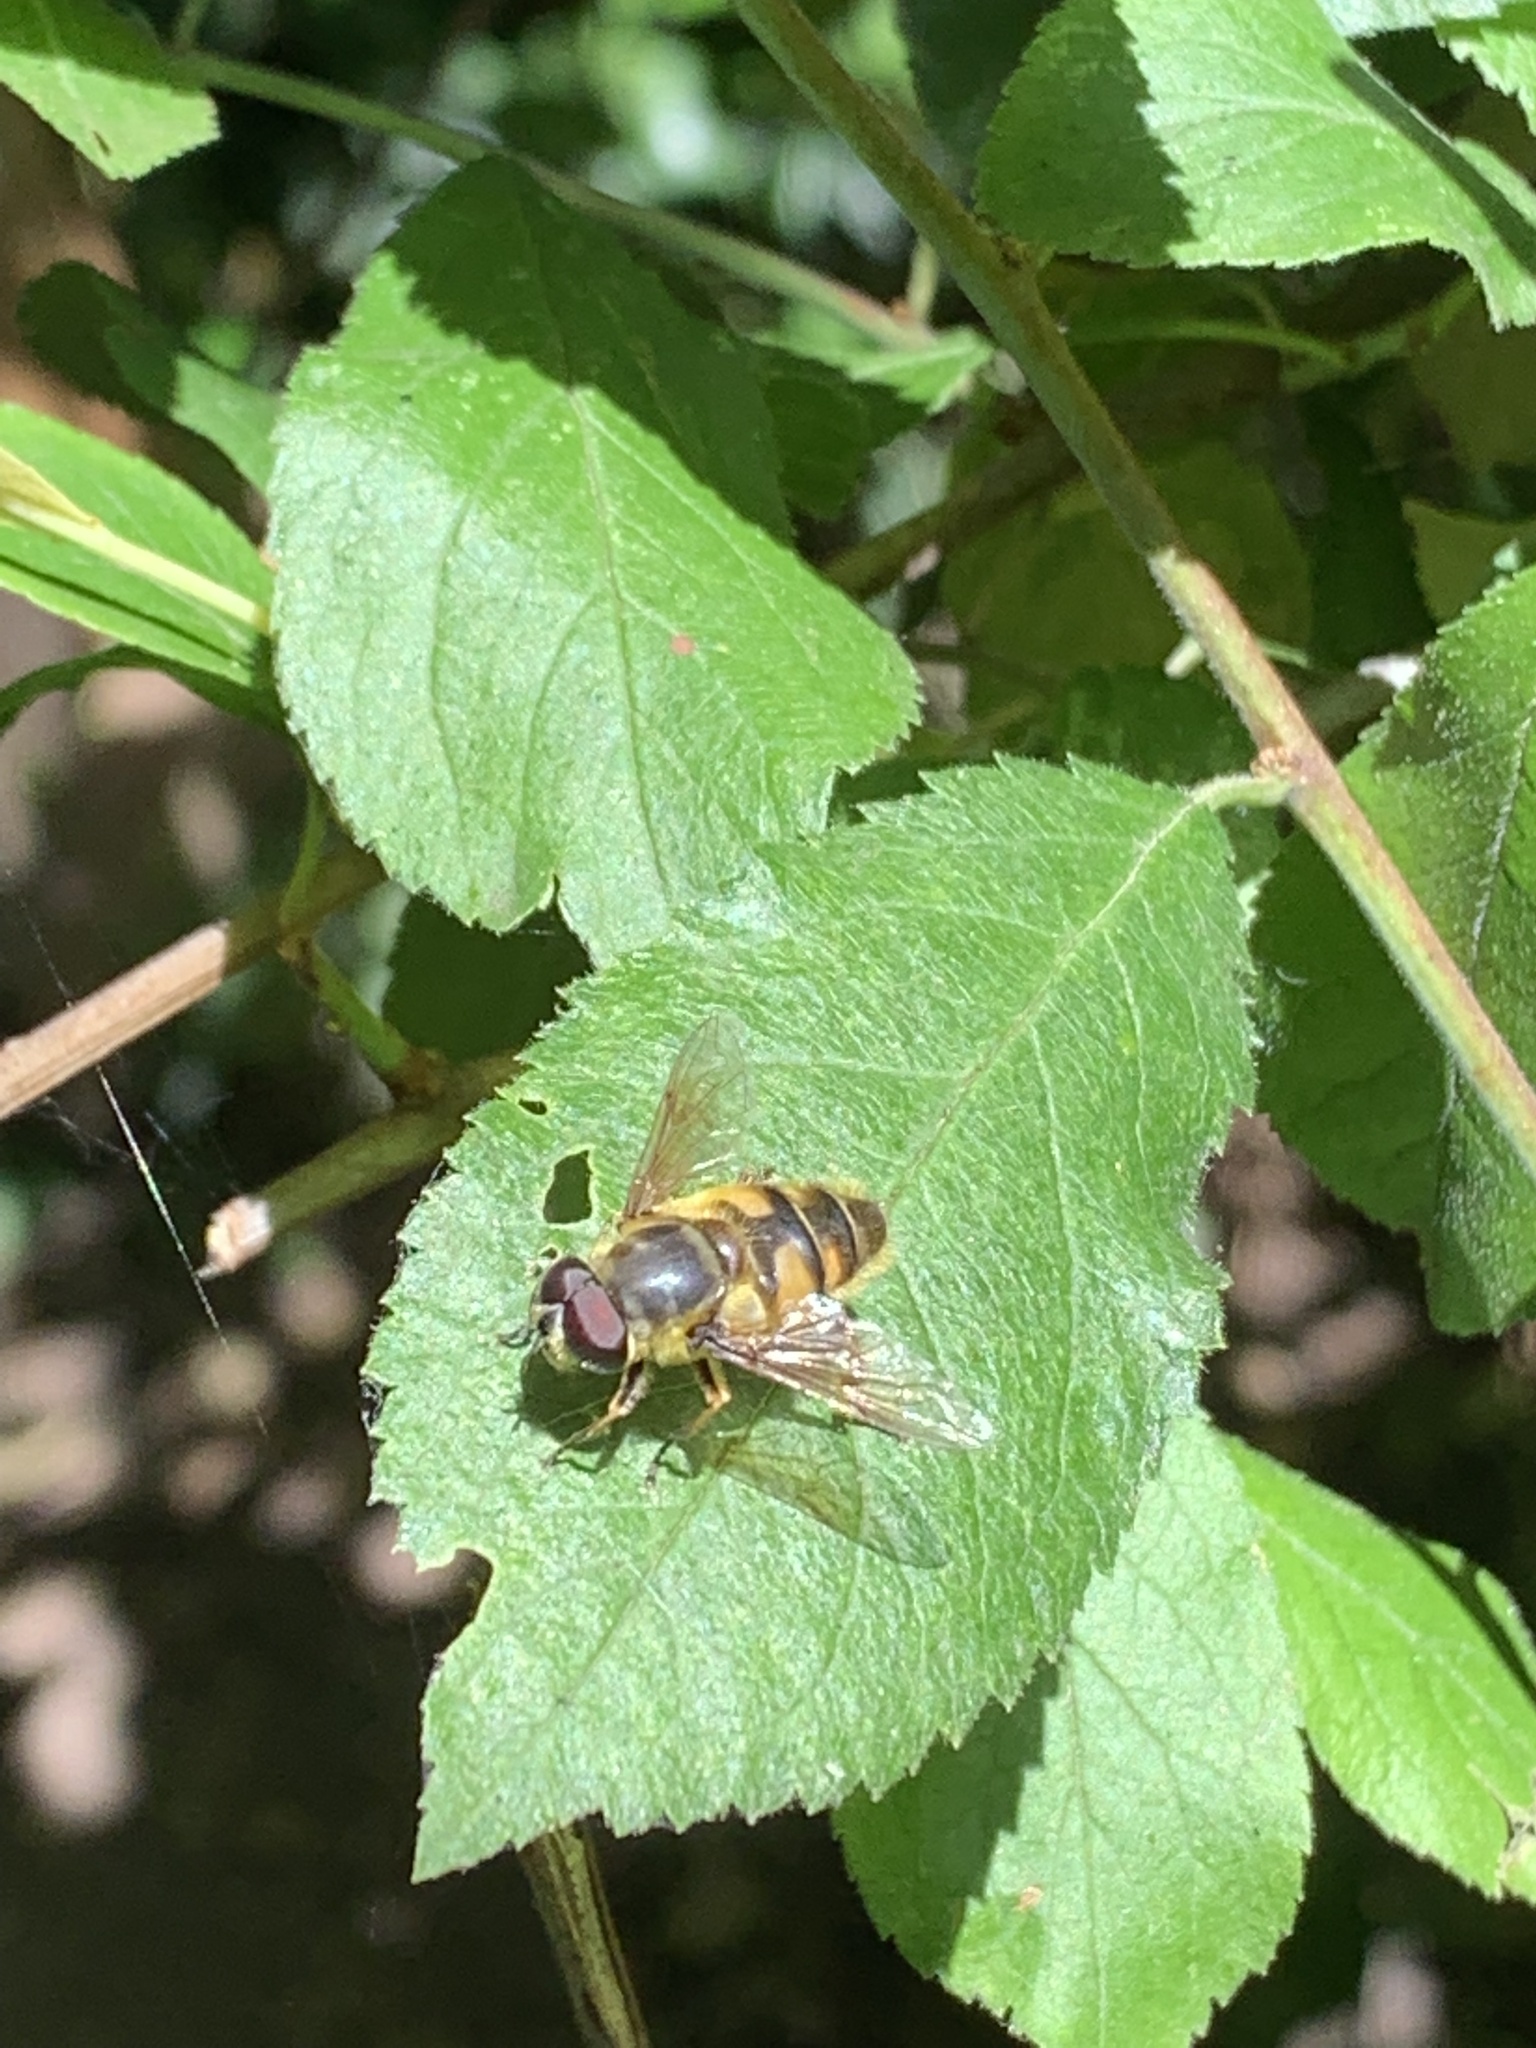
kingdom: Animalia
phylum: Arthropoda
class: Insecta
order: Diptera
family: Syrphidae
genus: Myathropa
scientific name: Myathropa florea
